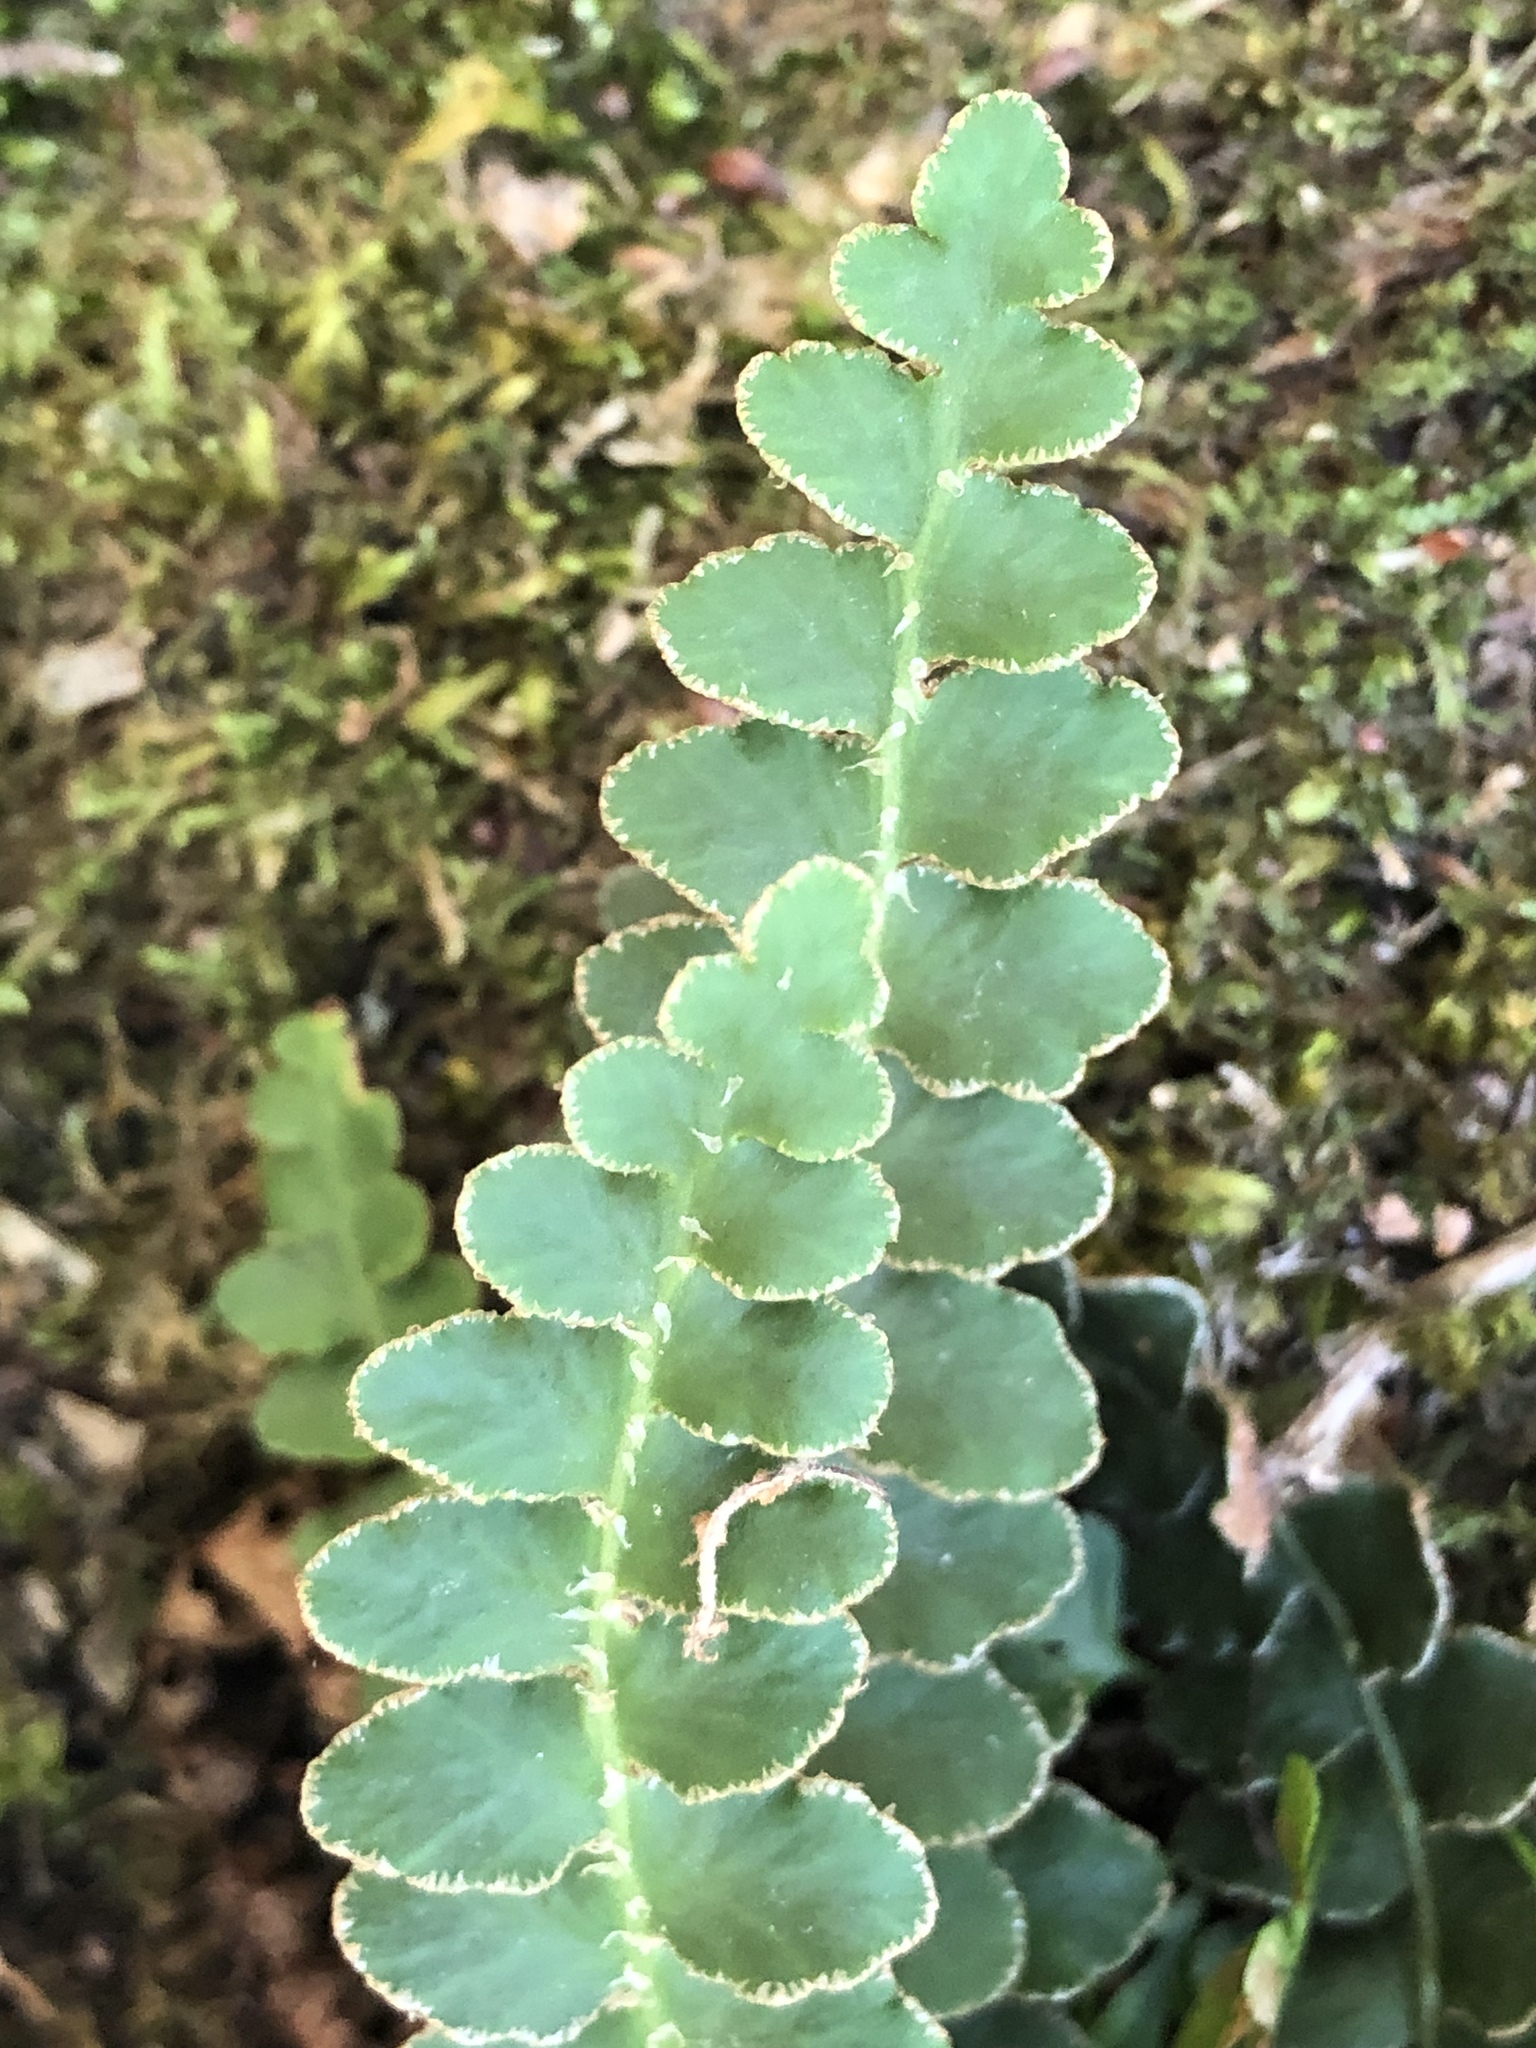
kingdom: Plantae
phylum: Tracheophyta
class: Polypodiopsida
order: Polypodiales
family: Aspleniaceae
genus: Asplenium
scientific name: Asplenium ceterach
